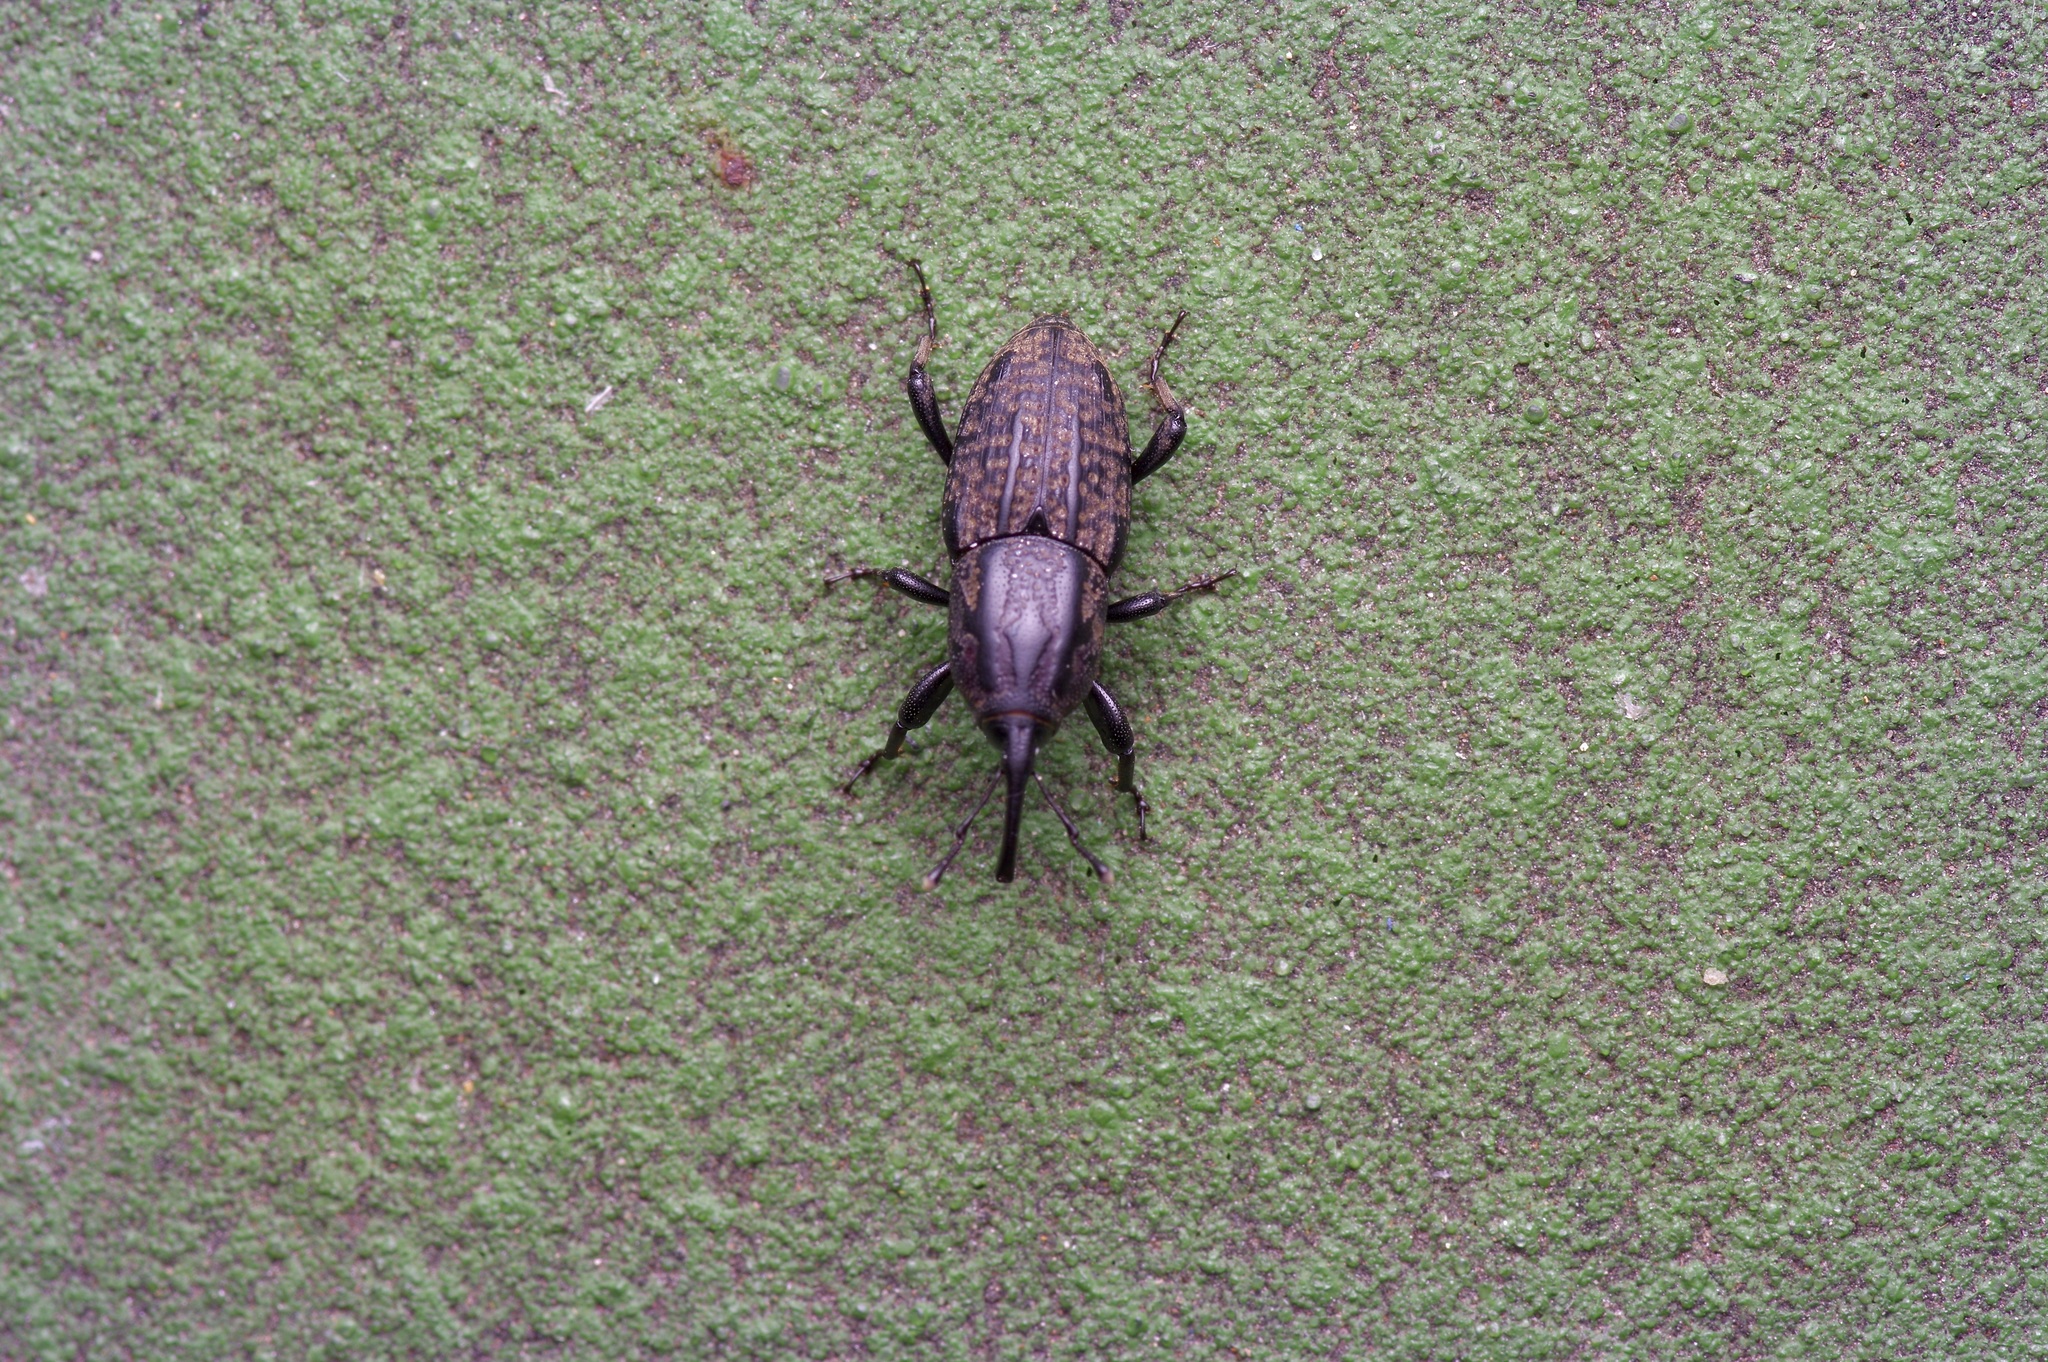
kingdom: Animalia
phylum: Arthropoda
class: Insecta
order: Coleoptera
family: Dryophthoridae
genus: Sphenophorus
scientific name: Sphenophorus cariosus
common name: Weevil
